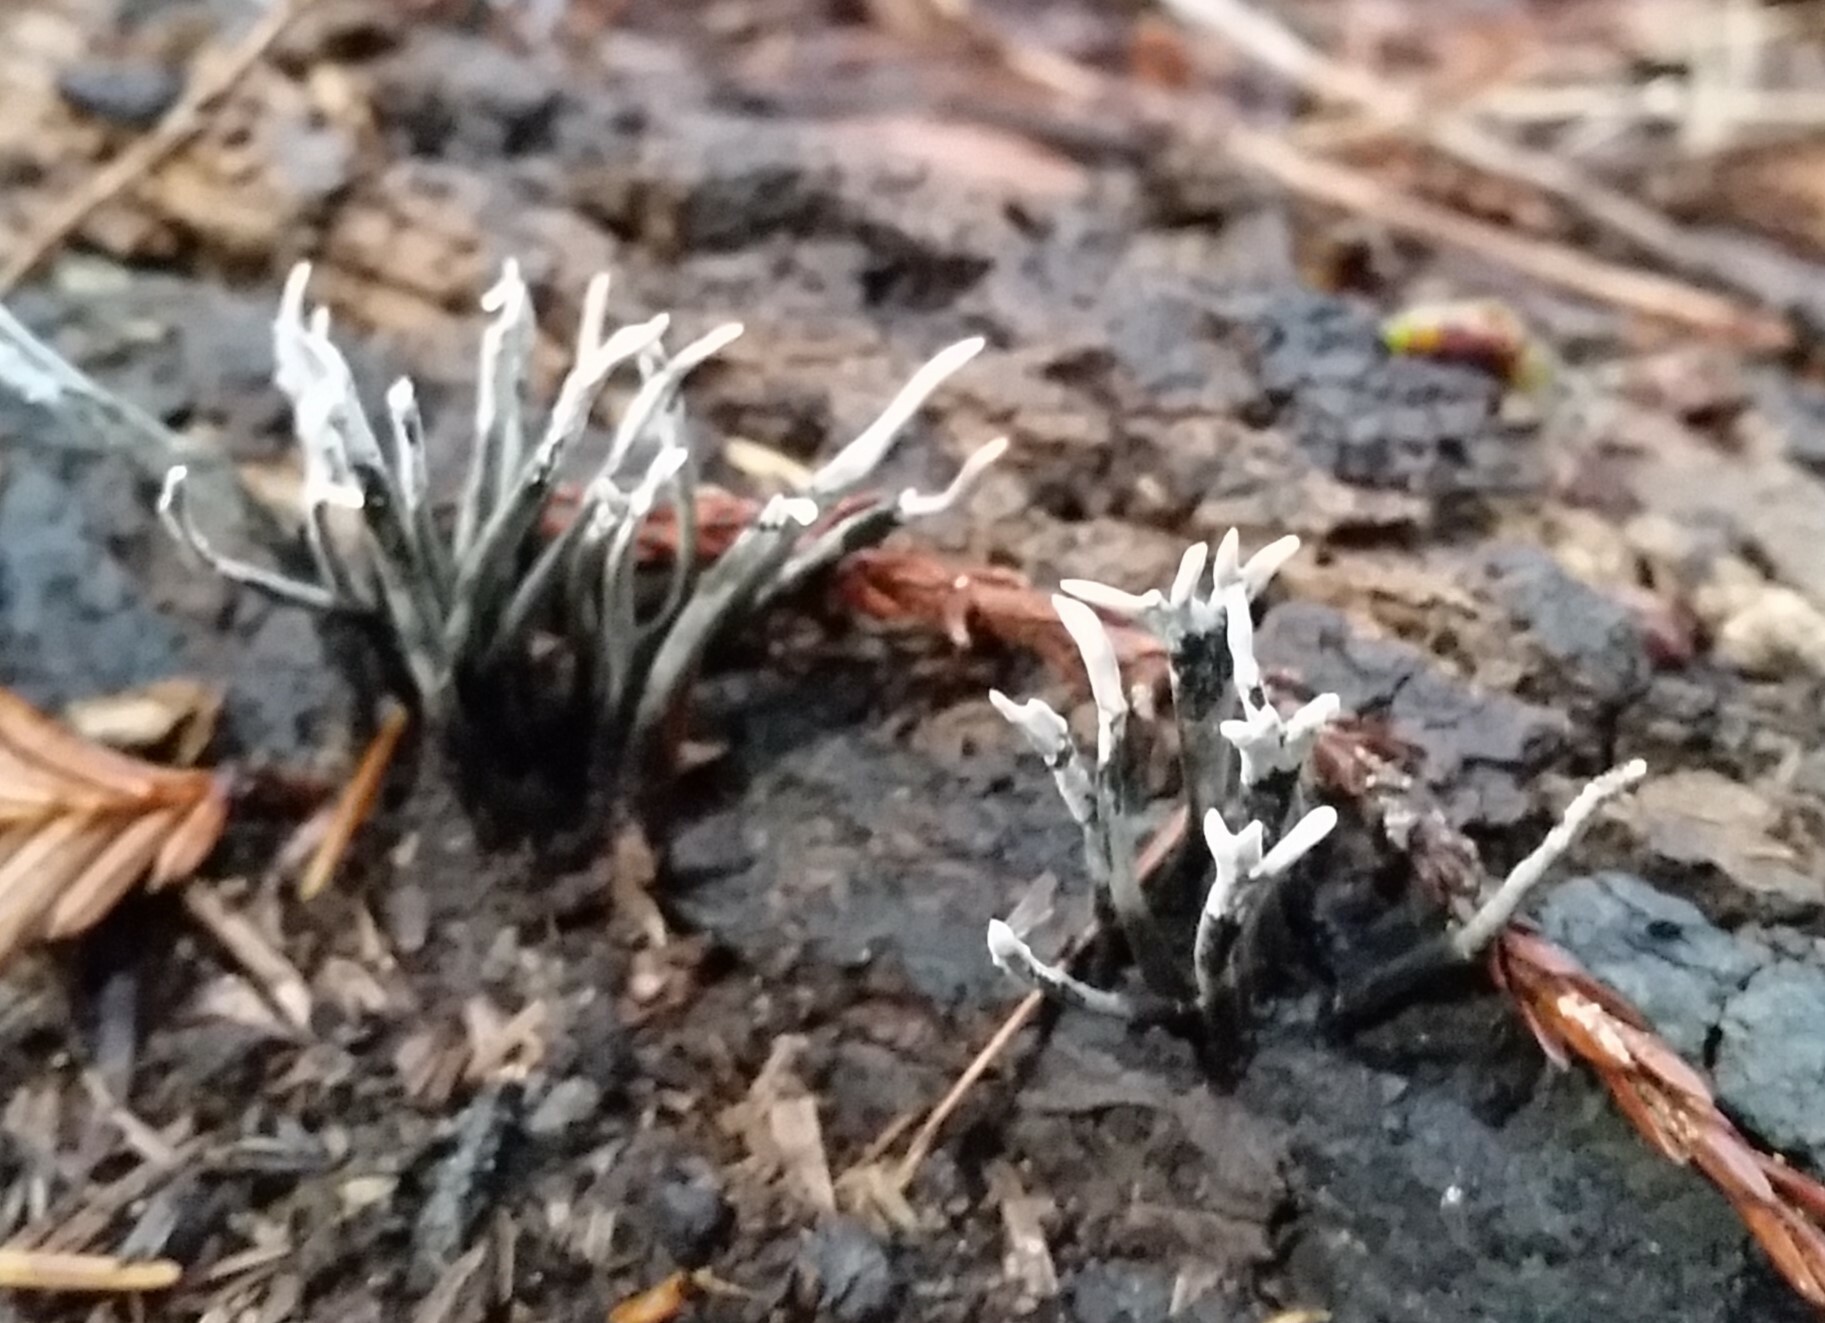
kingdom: Fungi
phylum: Ascomycota
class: Sordariomycetes
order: Xylariales
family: Xylariaceae
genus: Xylaria
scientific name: Xylaria hypoxylon
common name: Candle-snuff fungus
